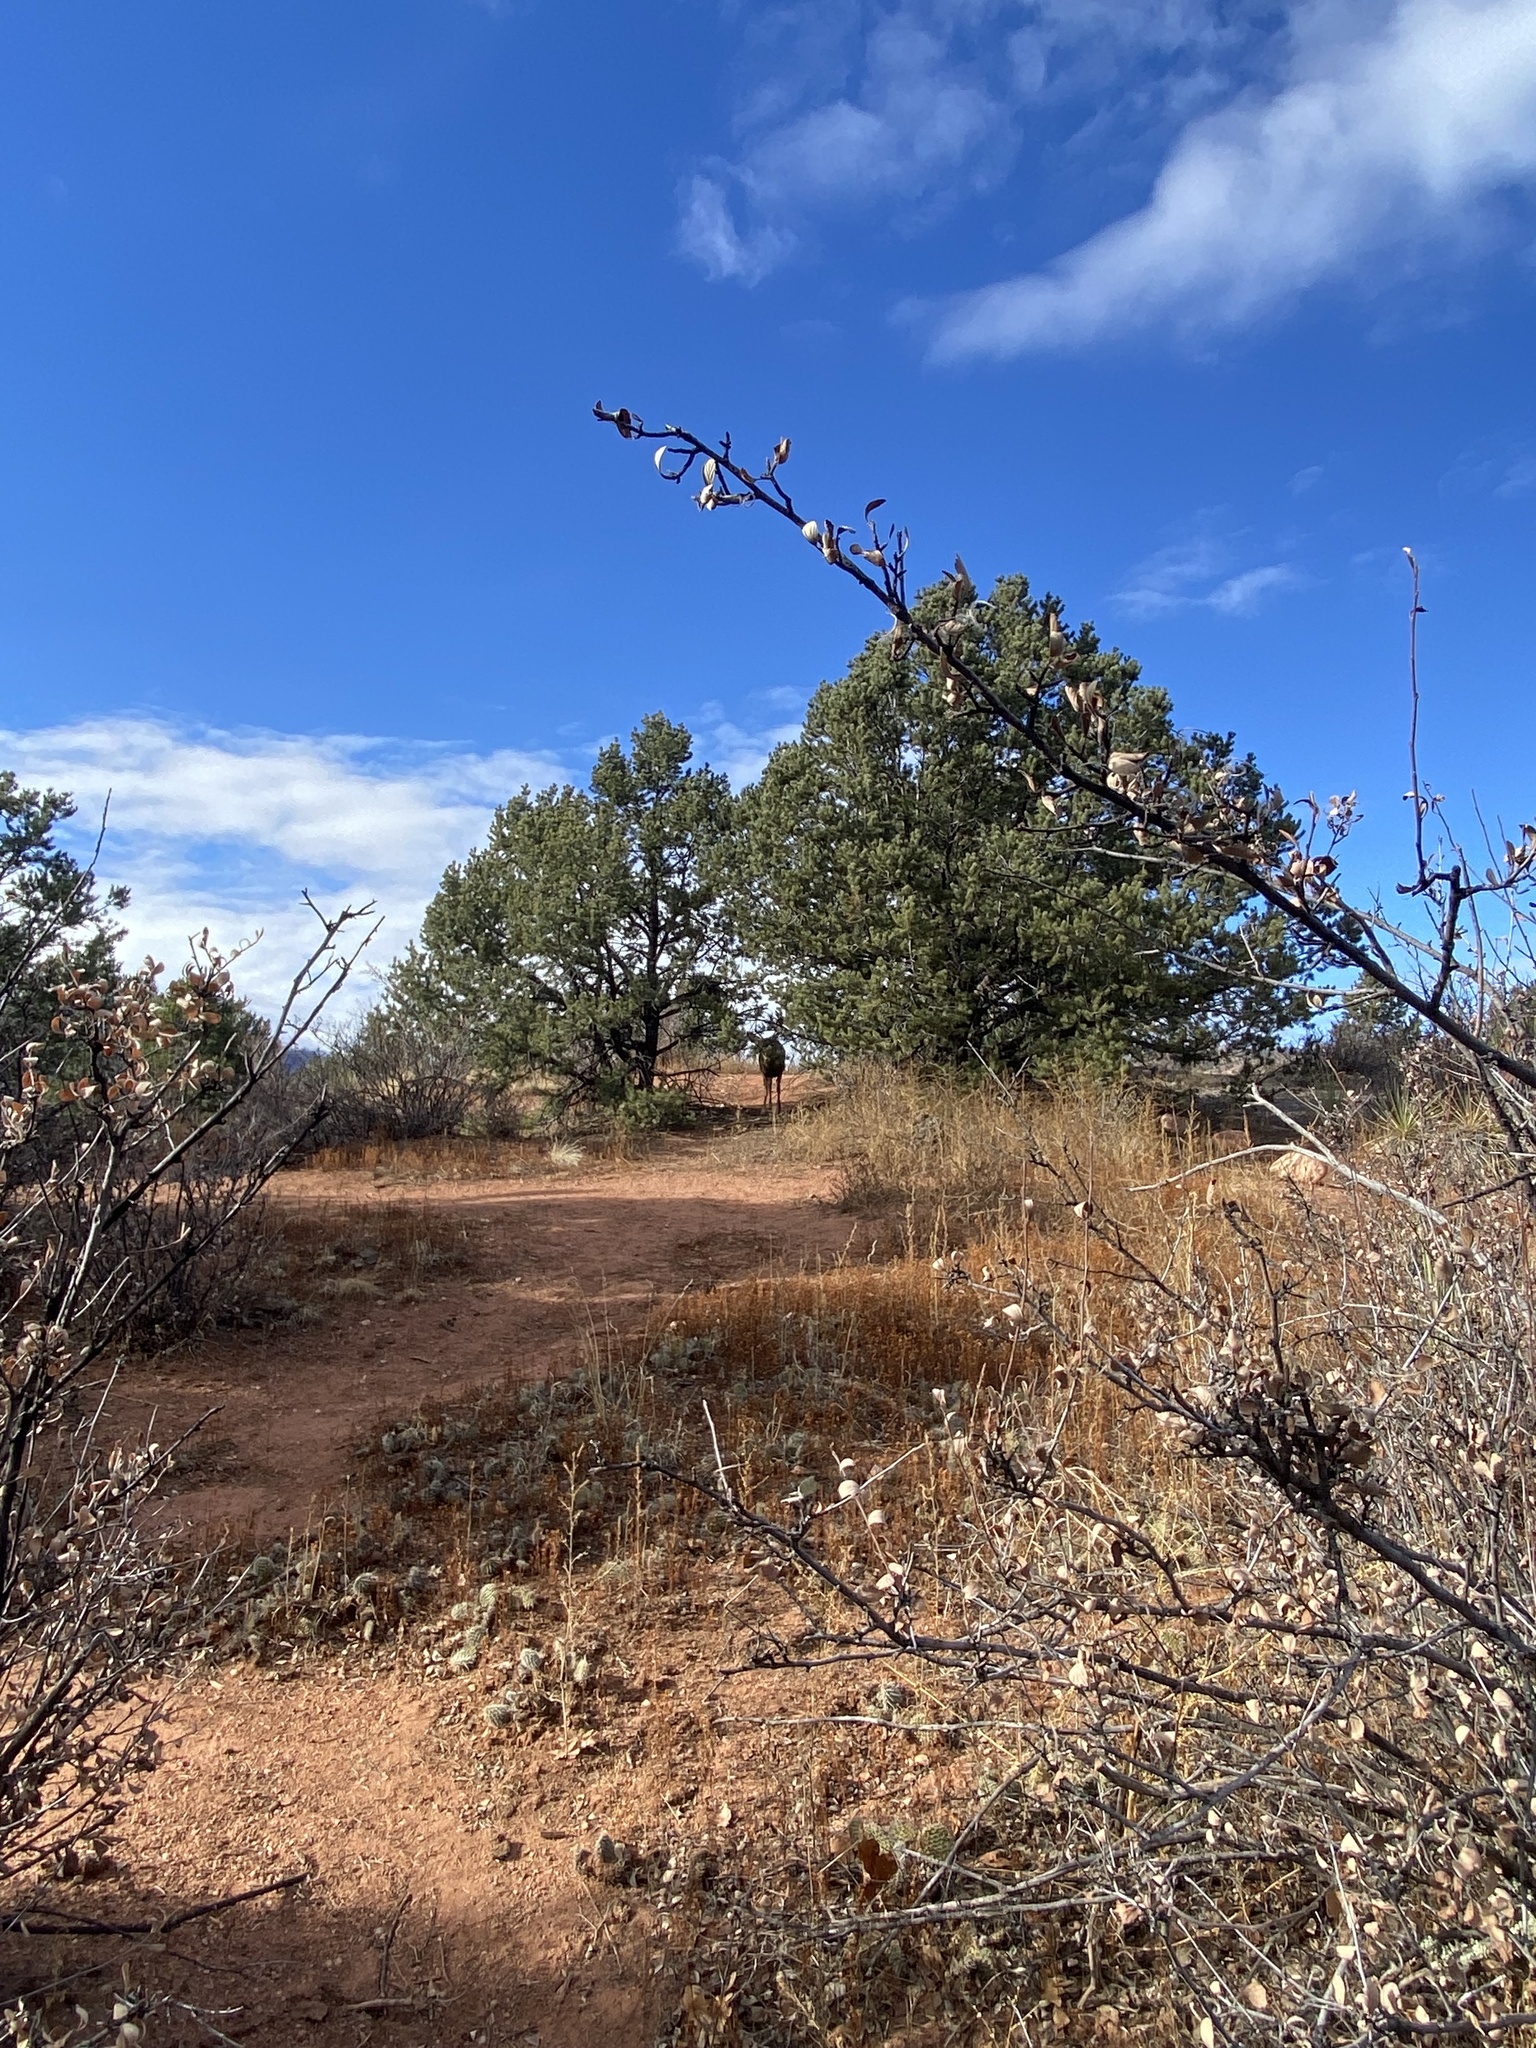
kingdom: Animalia
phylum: Chordata
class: Mammalia
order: Artiodactyla
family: Cervidae
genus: Odocoileus
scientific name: Odocoileus hemionus
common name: Mule deer
